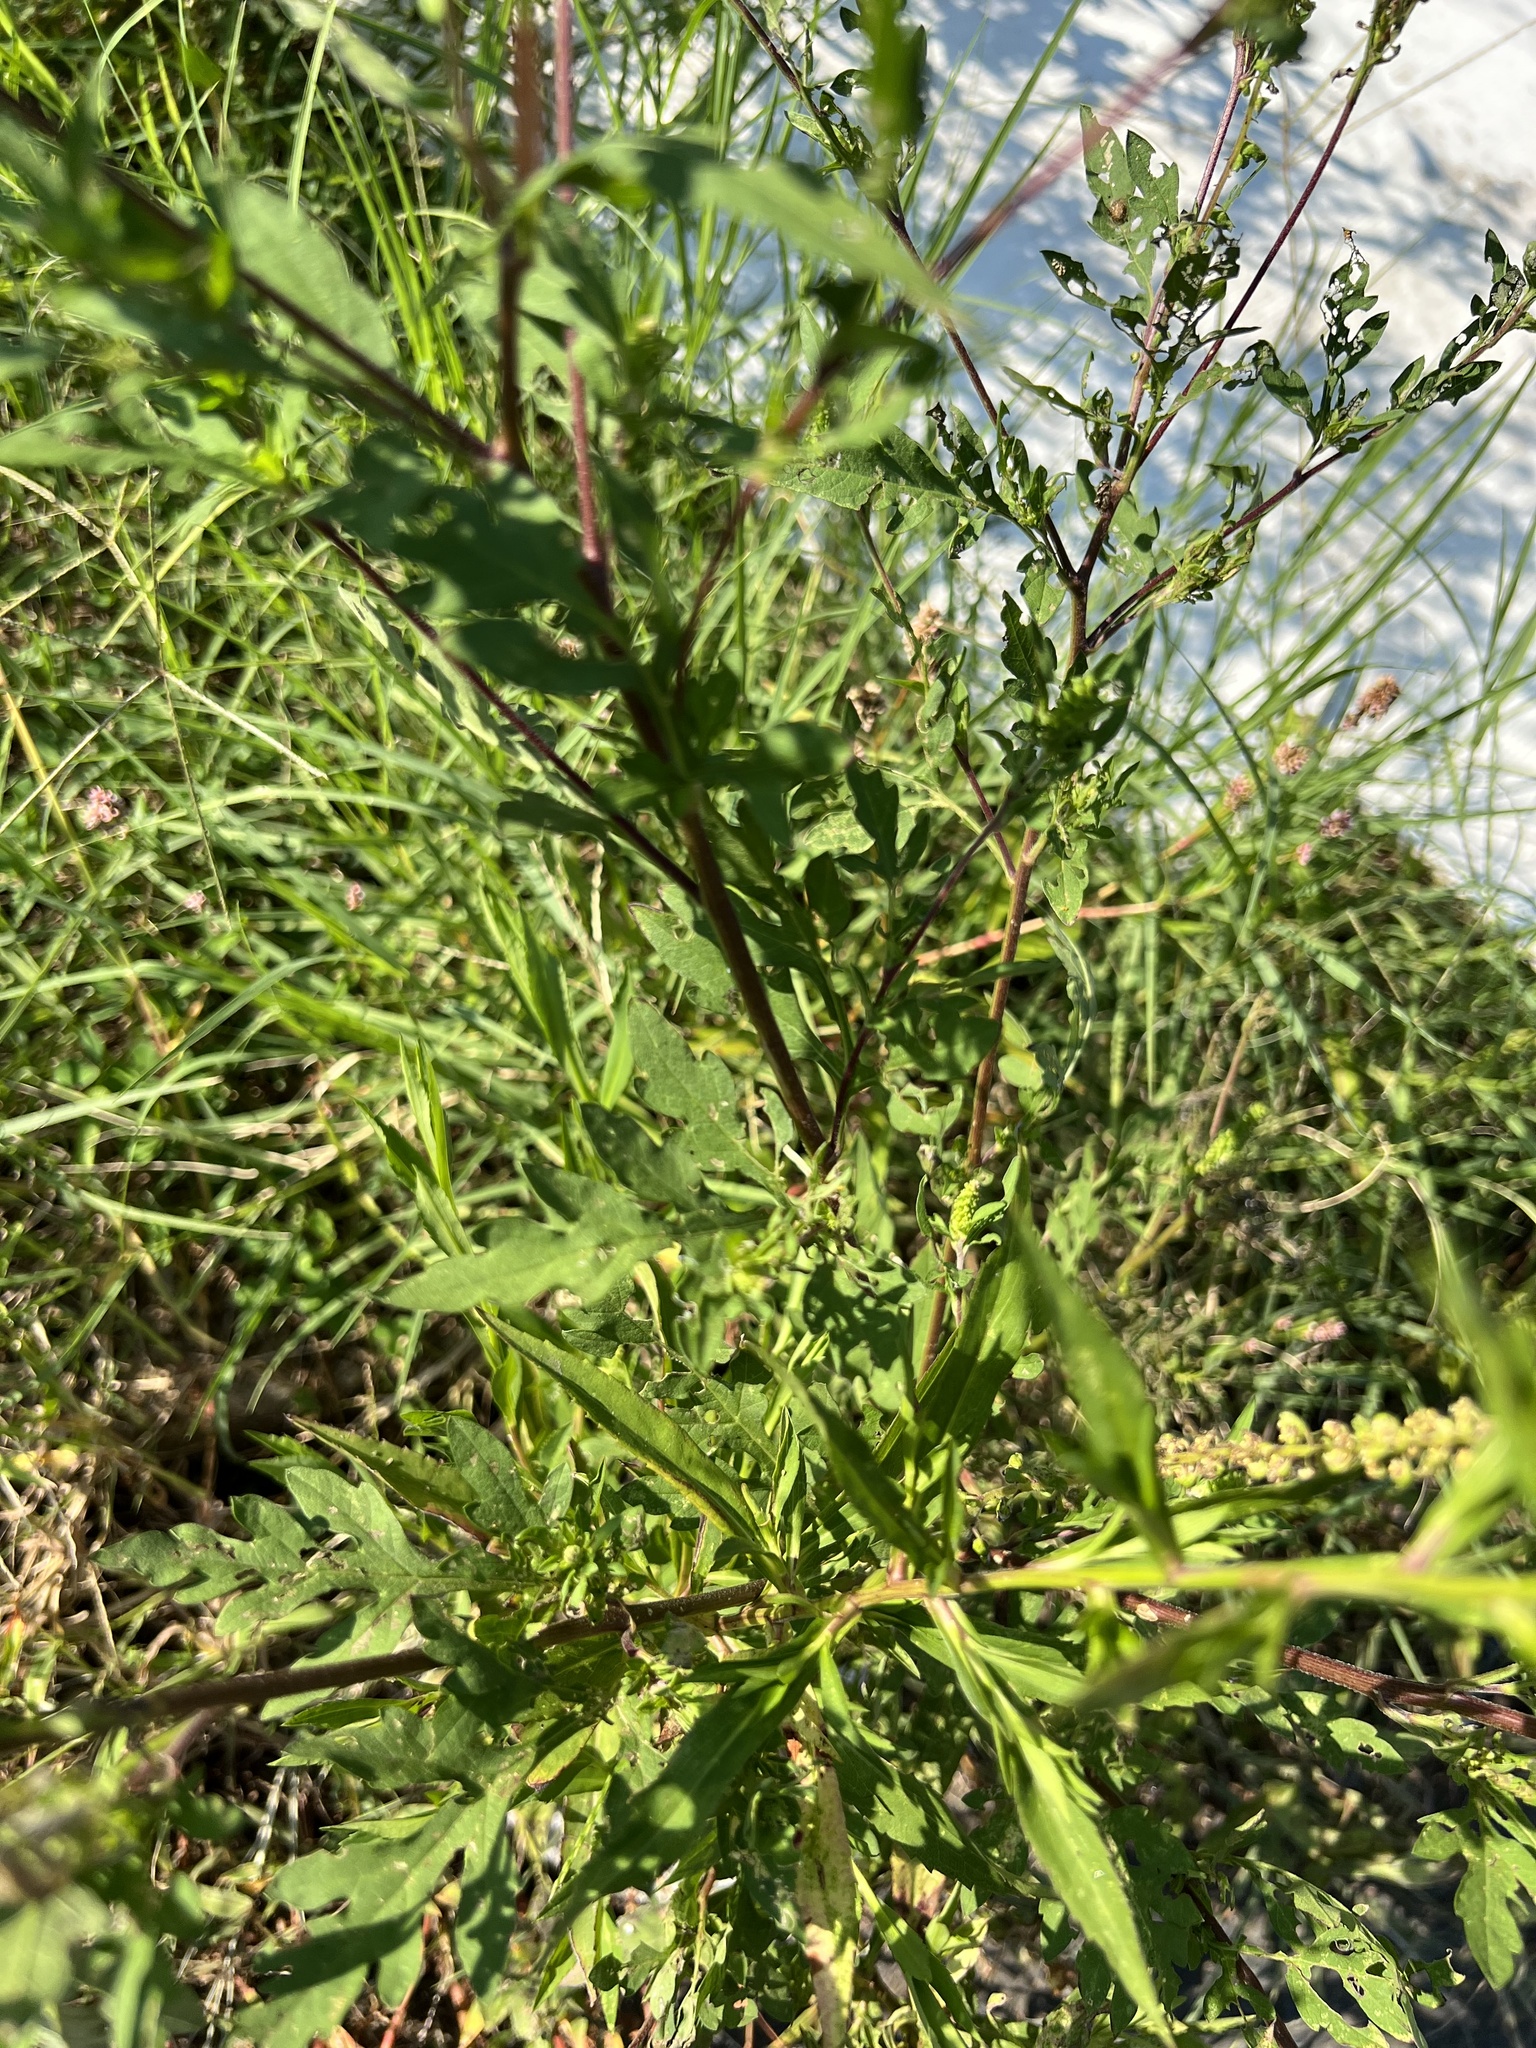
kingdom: Plantae
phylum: Tracheophyta
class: Magnoliopsida
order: Asterales
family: Asteraceae
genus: Ambrosia
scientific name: Ambrosia artemisiifolia
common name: Annual ragweed
